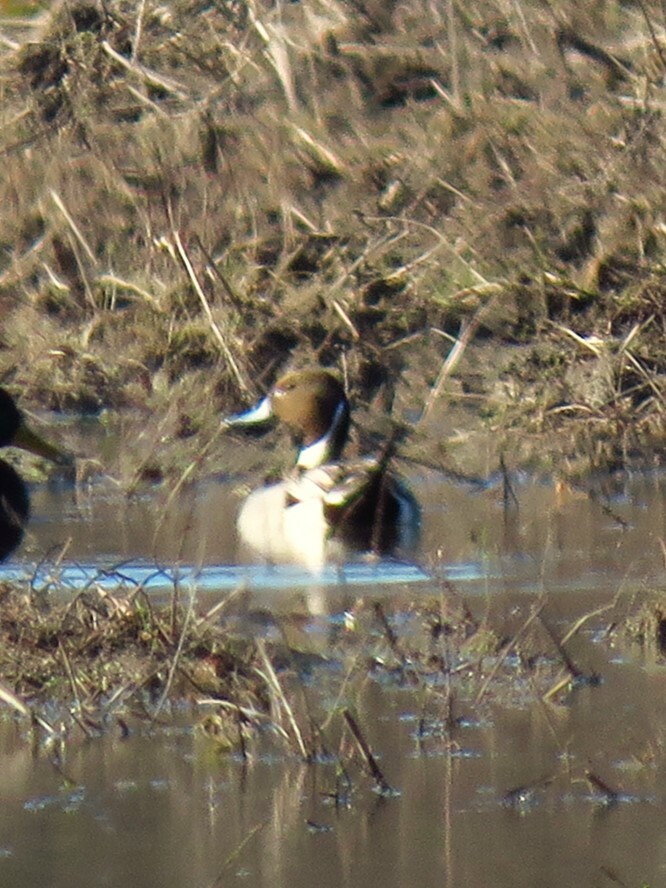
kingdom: Animalia
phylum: Chordata
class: Aves
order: Anseriformes
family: Anatidae
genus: Anas
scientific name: Anas acuta
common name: Northern pintail
